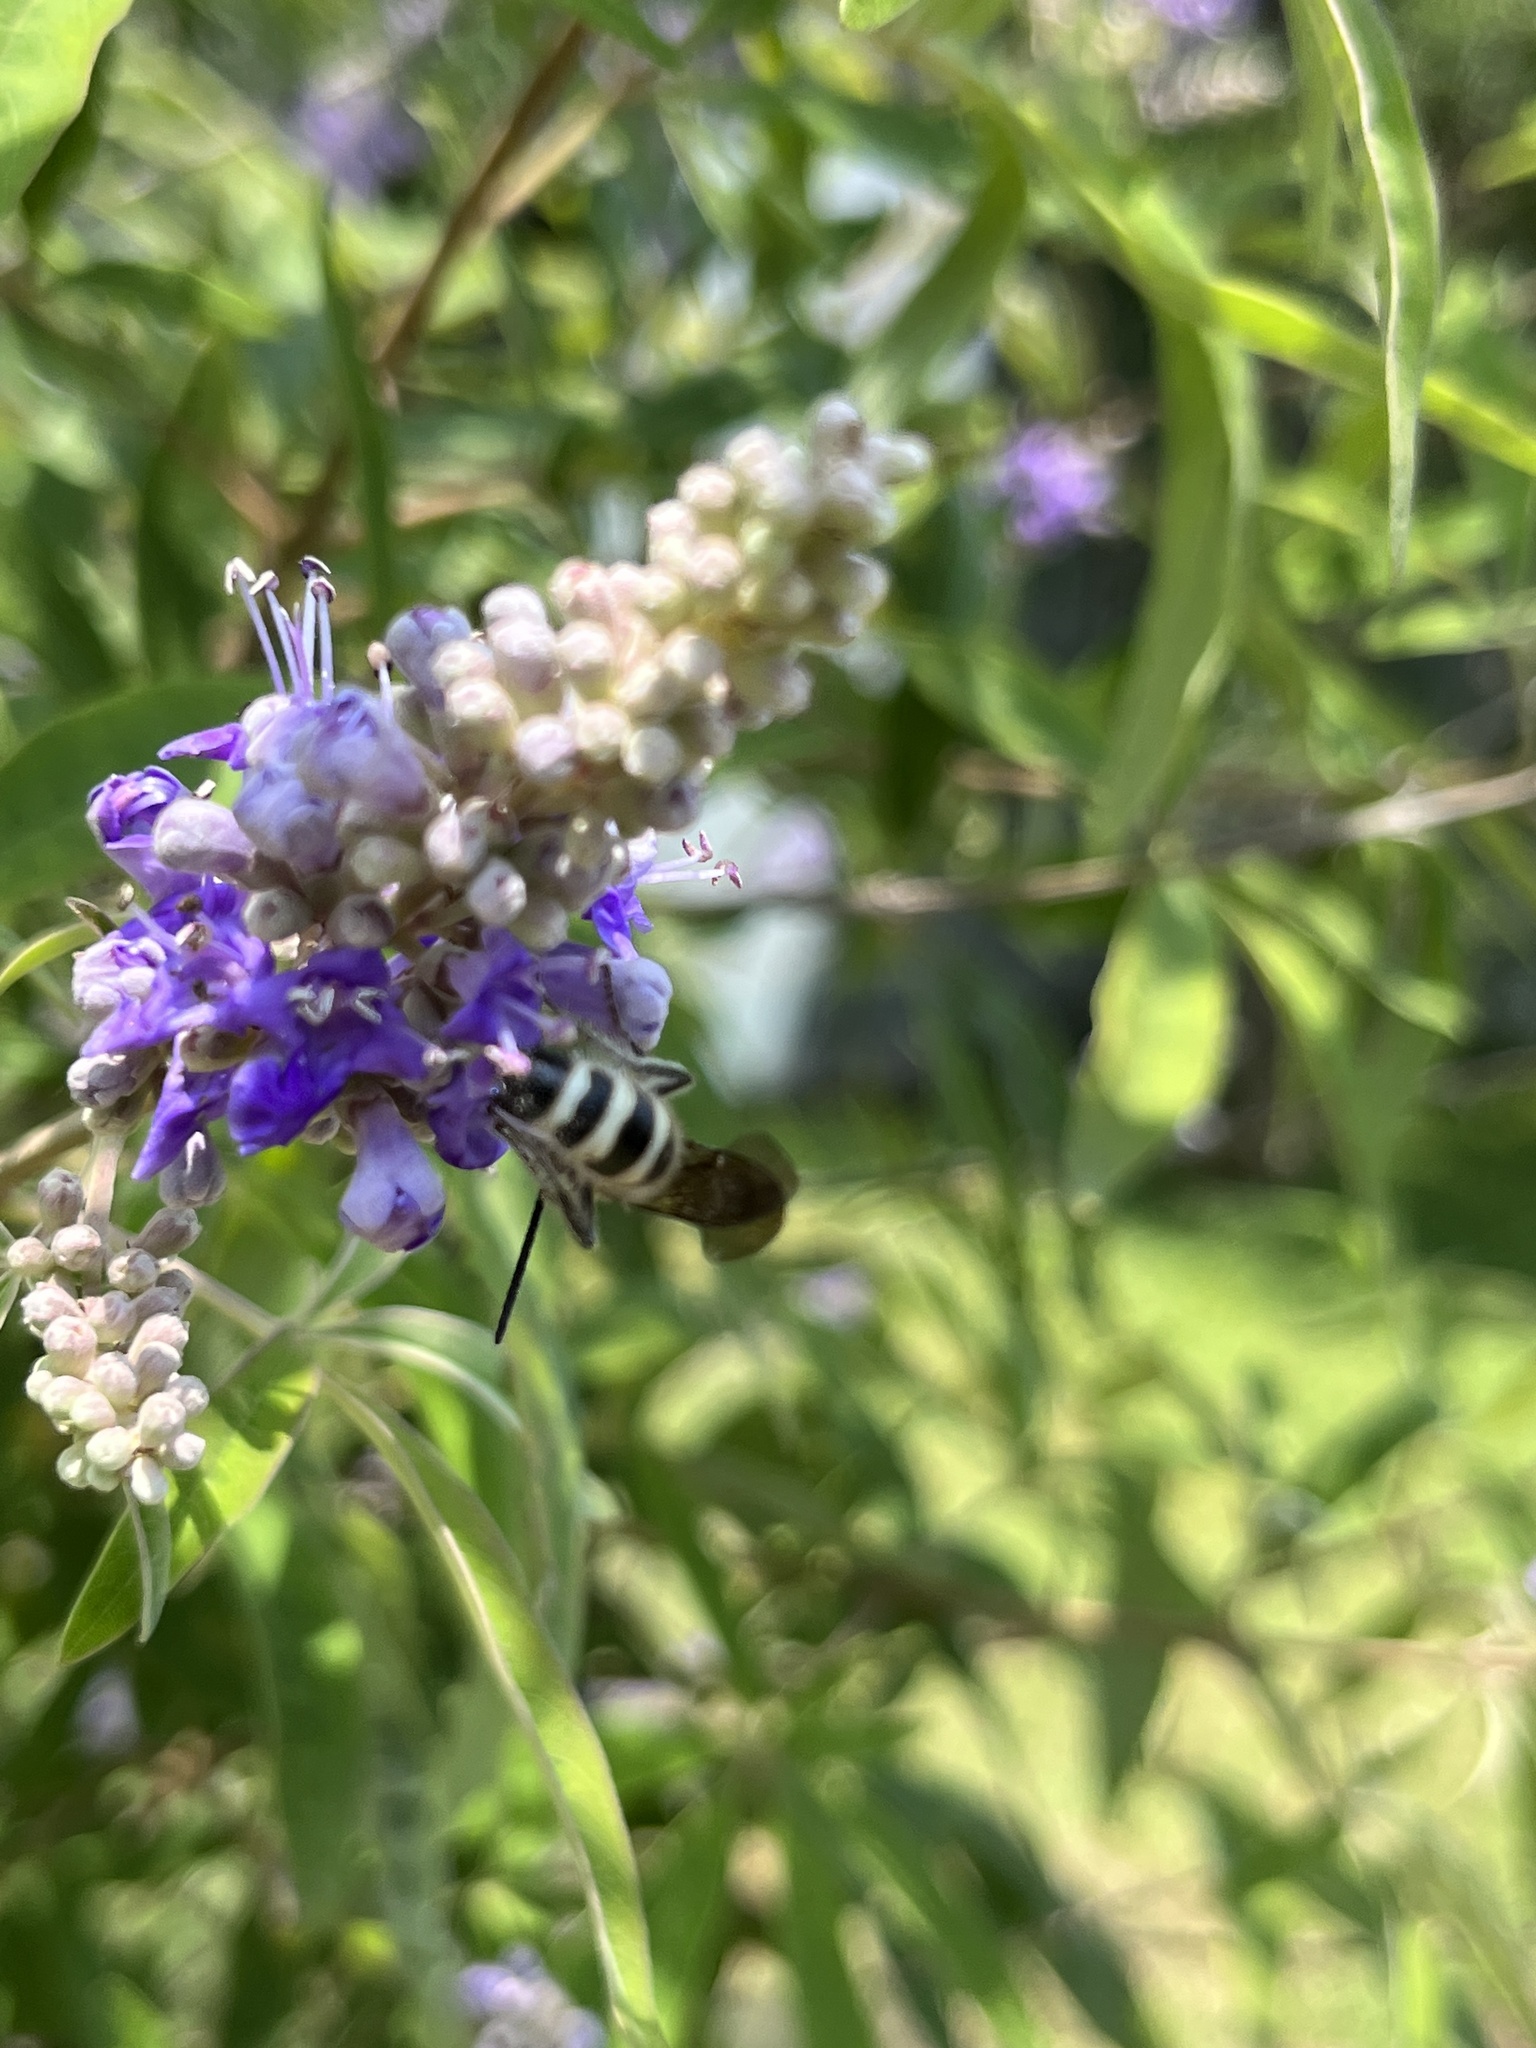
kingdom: Animalia
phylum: Arthropoda
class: Insecta
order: Hymenoptera
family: Scoliidae
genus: Dielis
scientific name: Dielis
